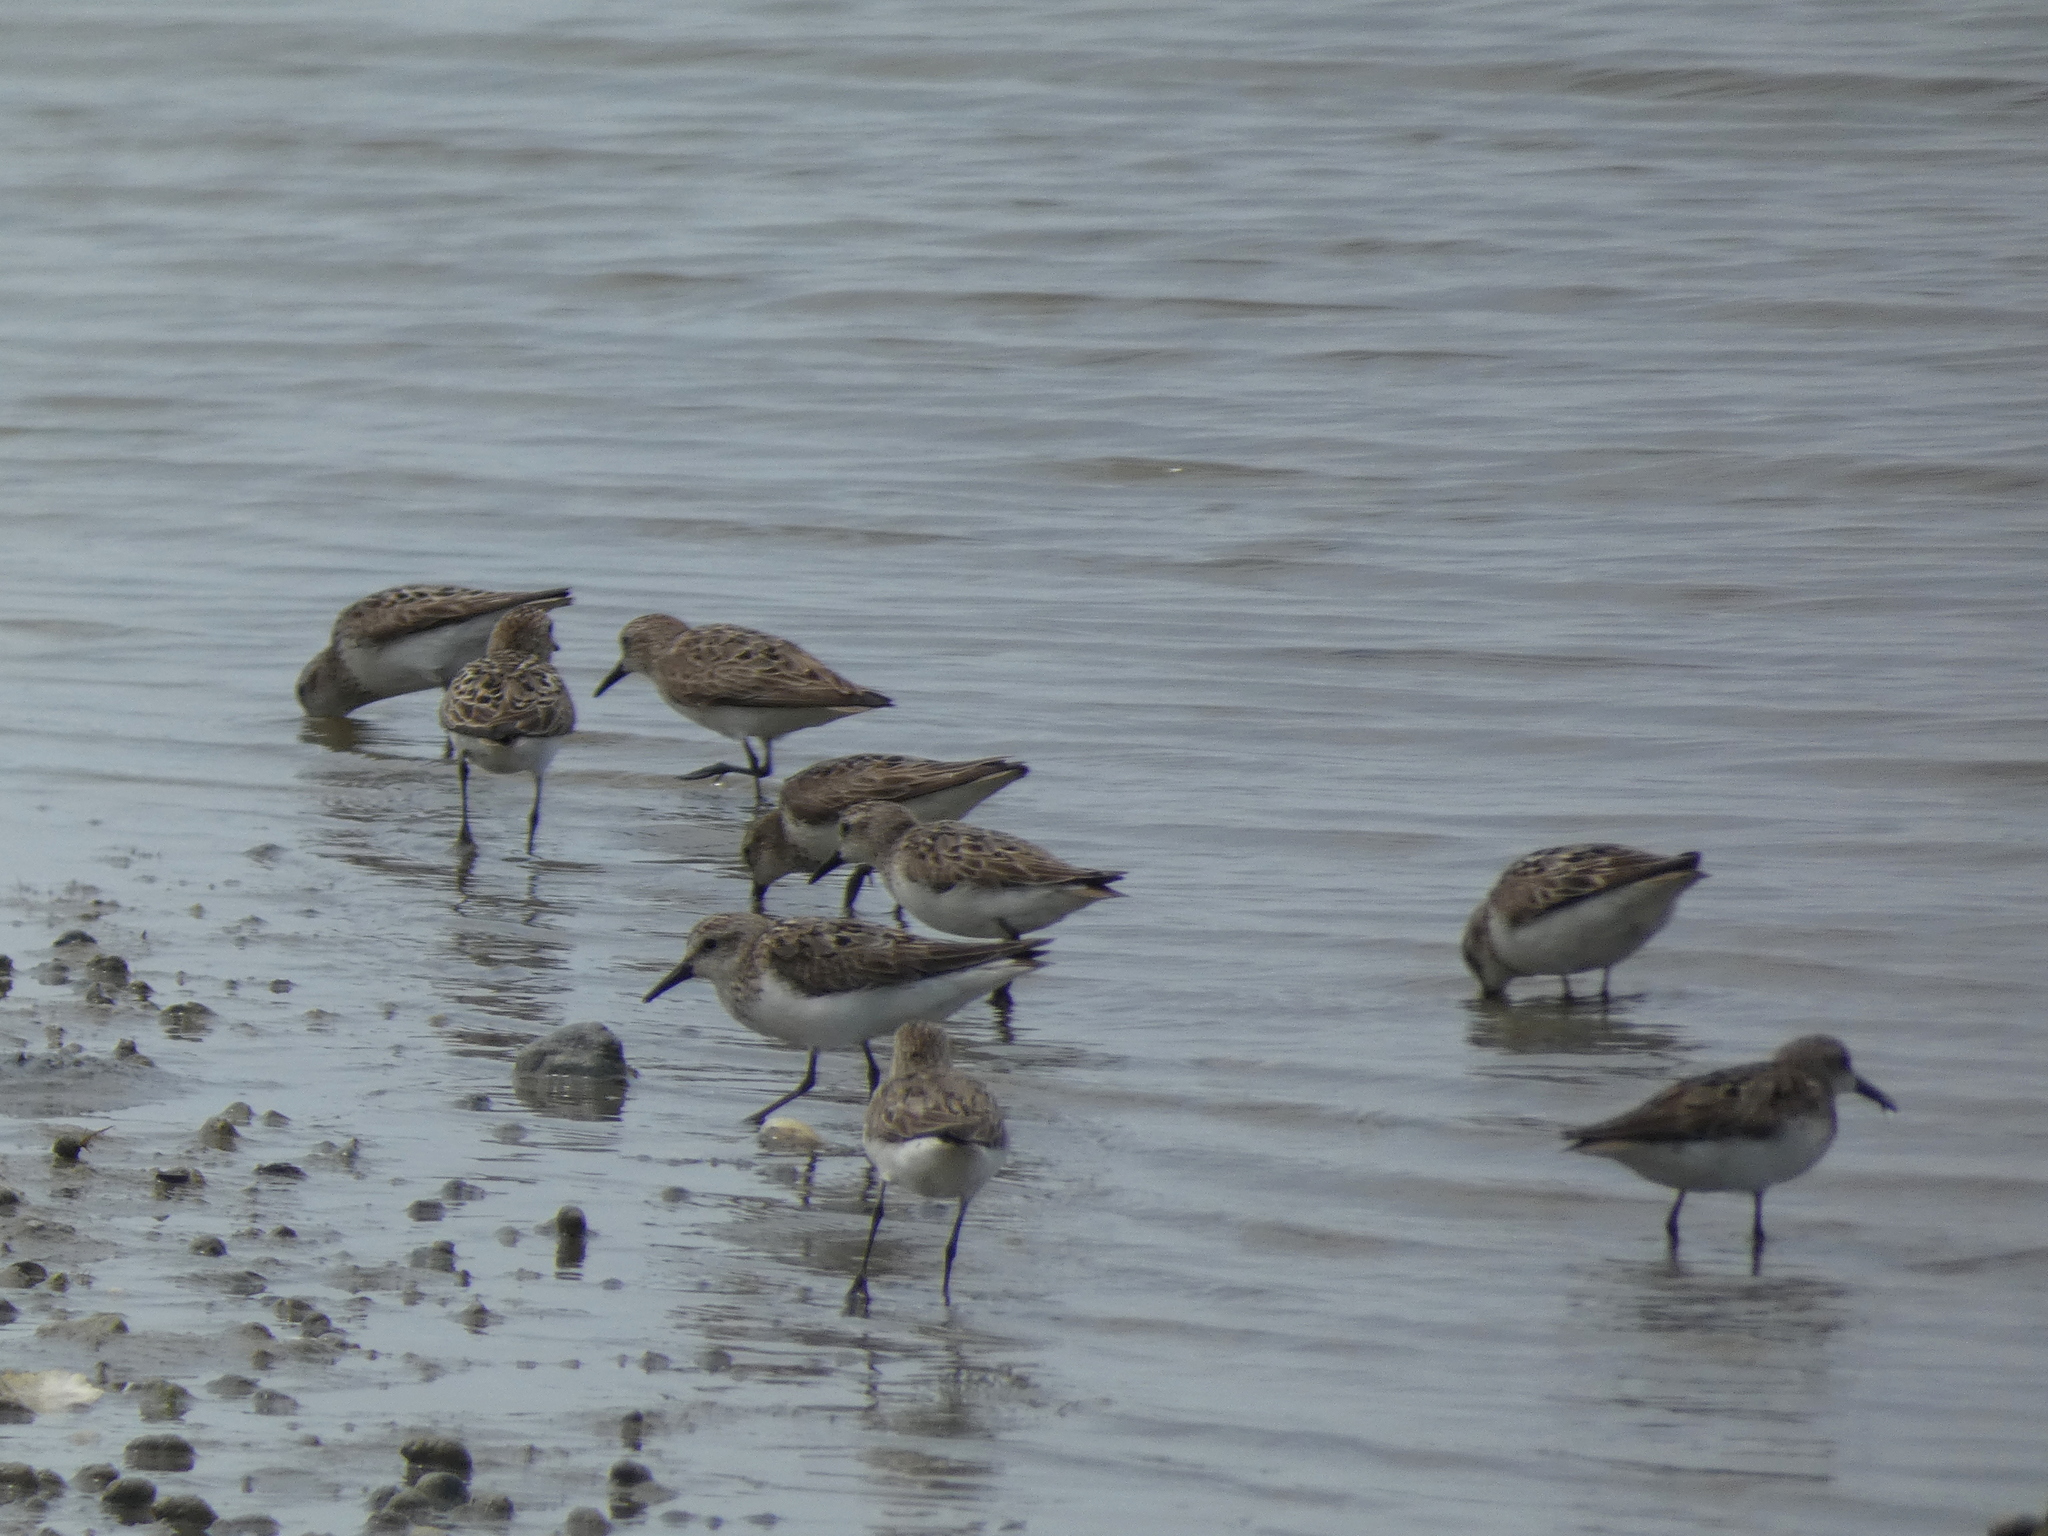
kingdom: Animalia
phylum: Chordata
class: Aves
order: Charadriiformes
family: Scolopacidae
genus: Calidris
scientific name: Calidris pusilla
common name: Semipalmated sandpiper
